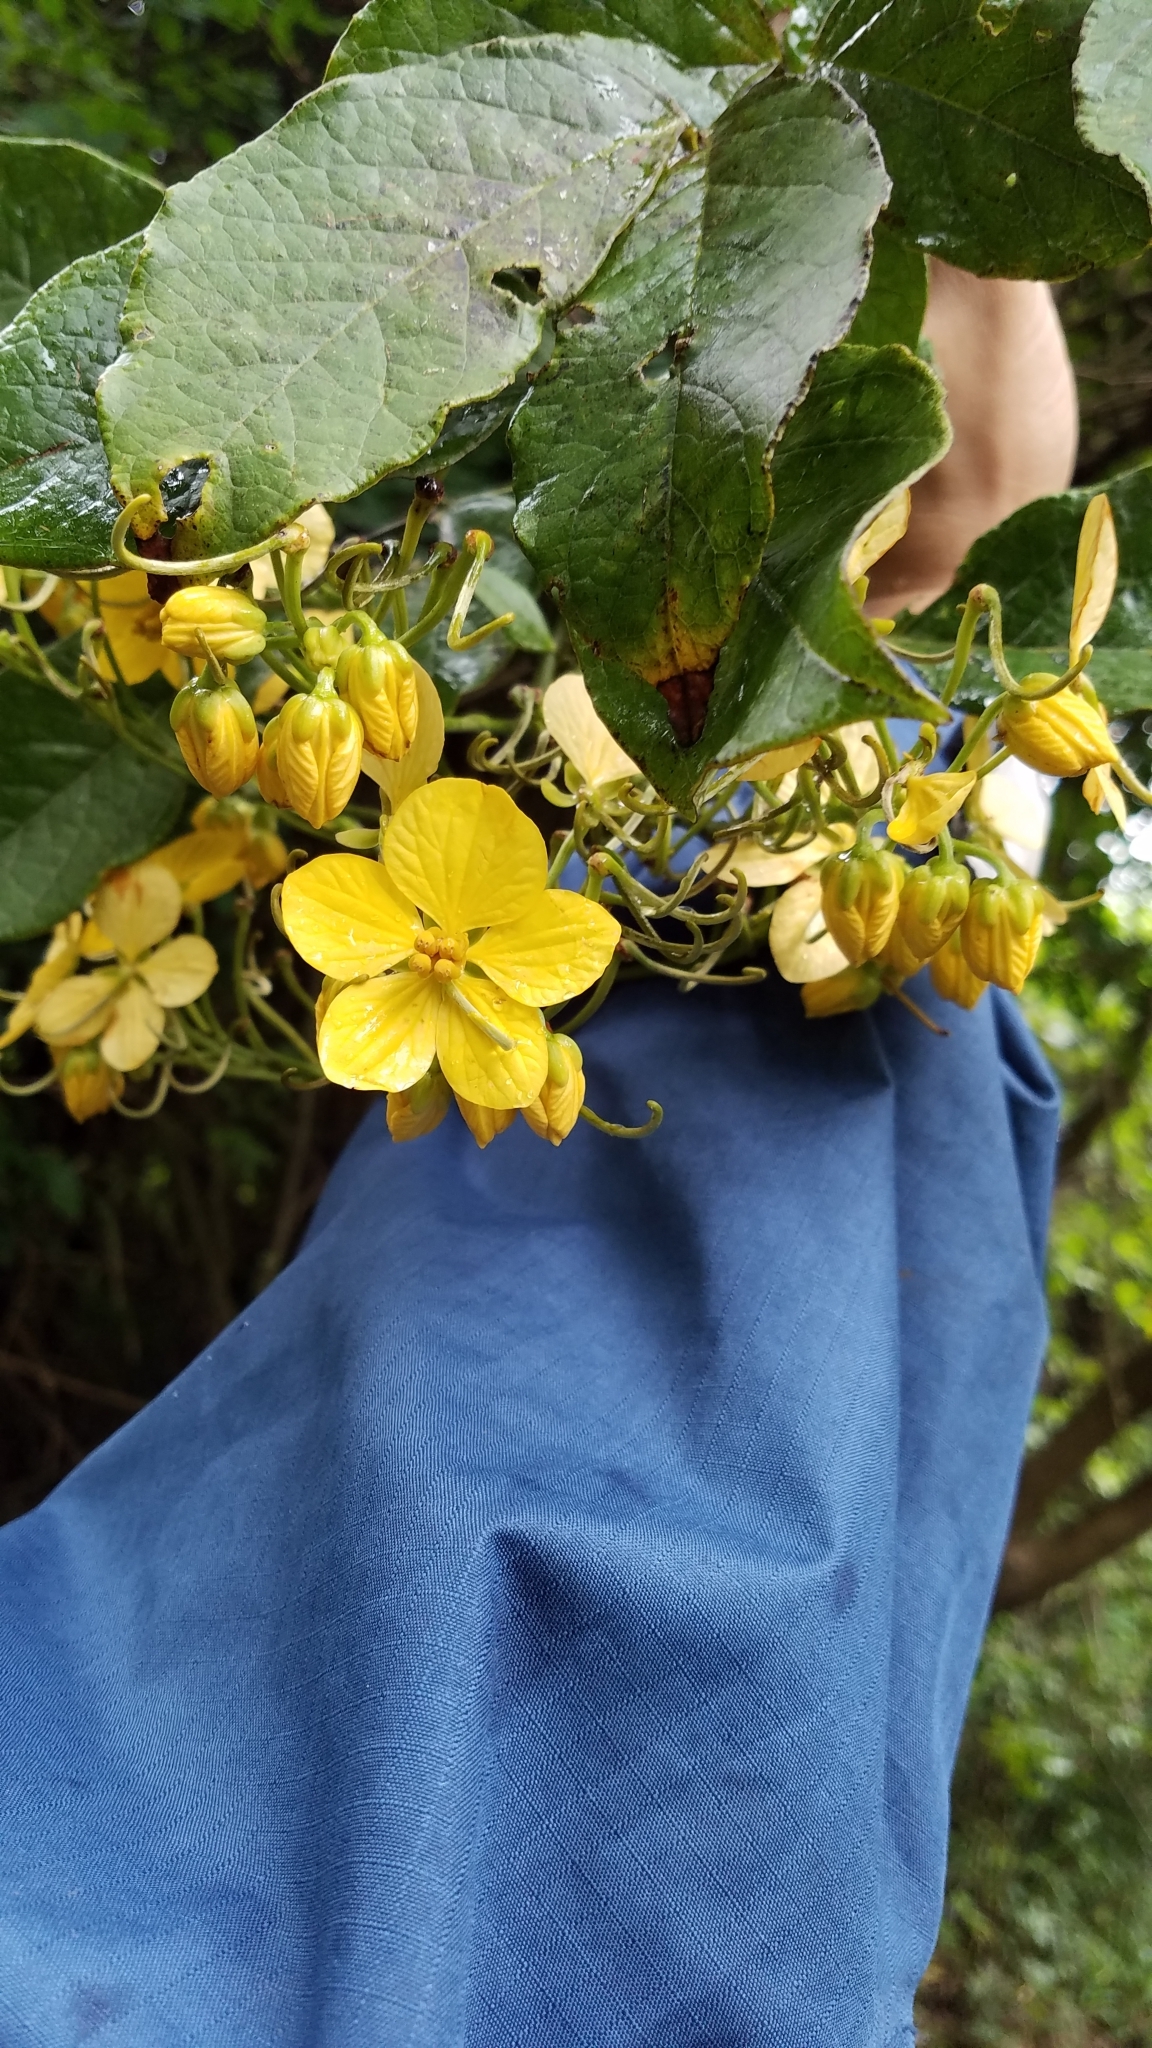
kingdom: Plantae
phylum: Tracheophyta
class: Magnoliopsida
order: Fabales
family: Fabaceae
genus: Senna
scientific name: Senna hayesiana
